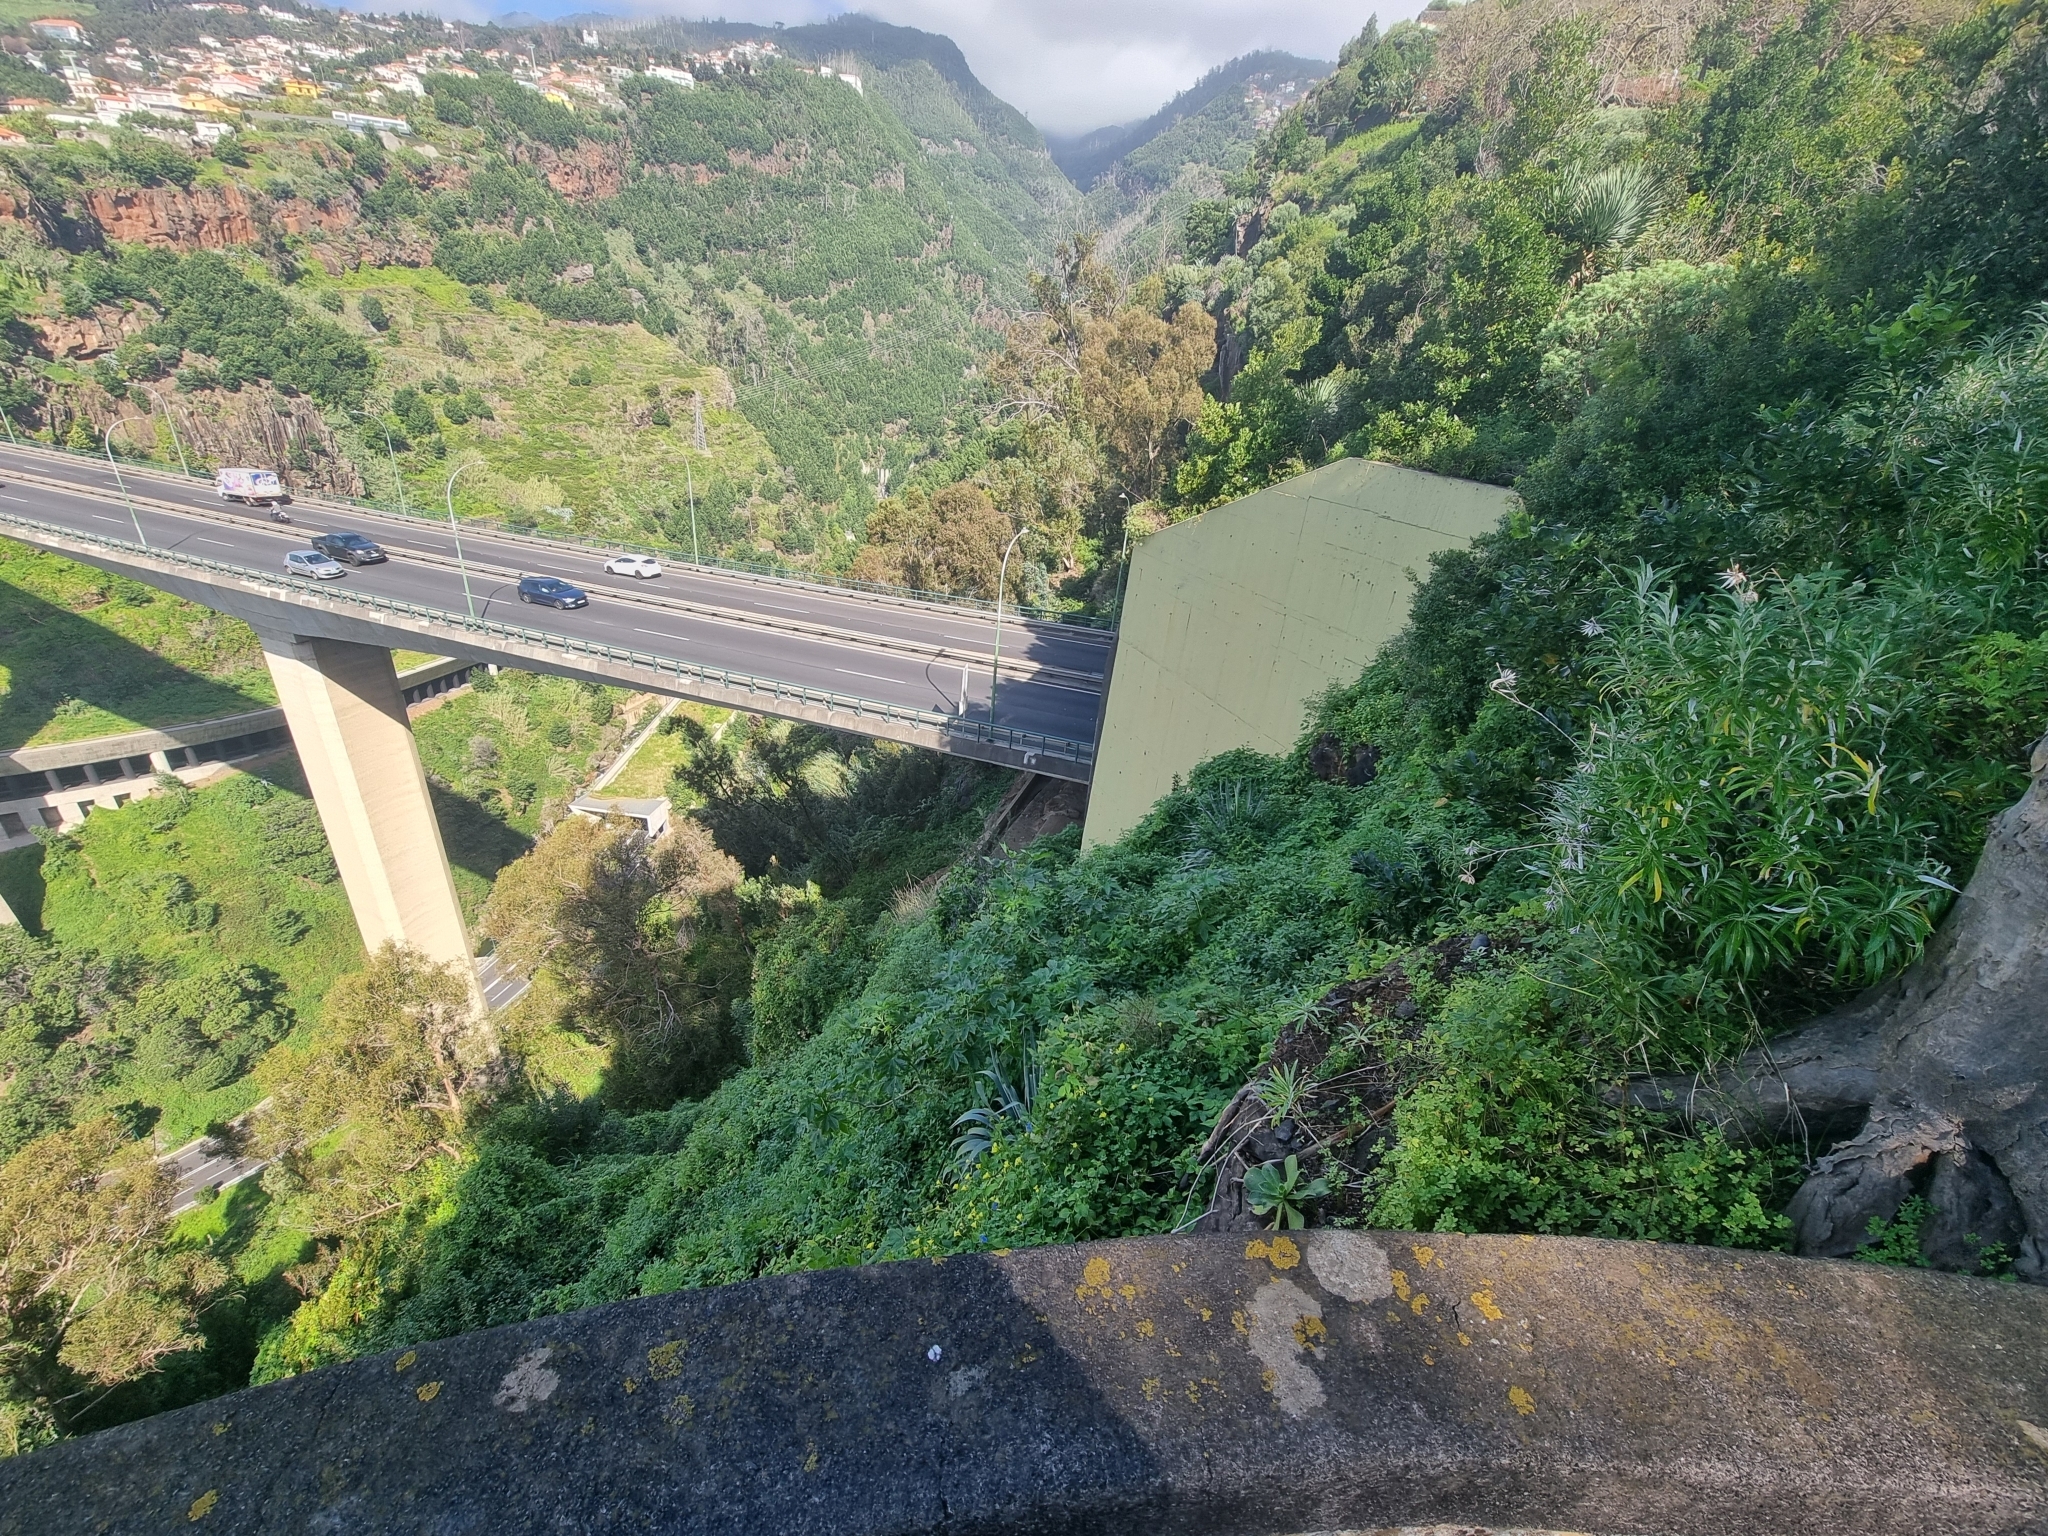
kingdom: Plantae
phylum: Tracheophyta
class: Magnoliopsida
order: Asterales
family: Asteraceae
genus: Carlina
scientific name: Carlina salicifolia
